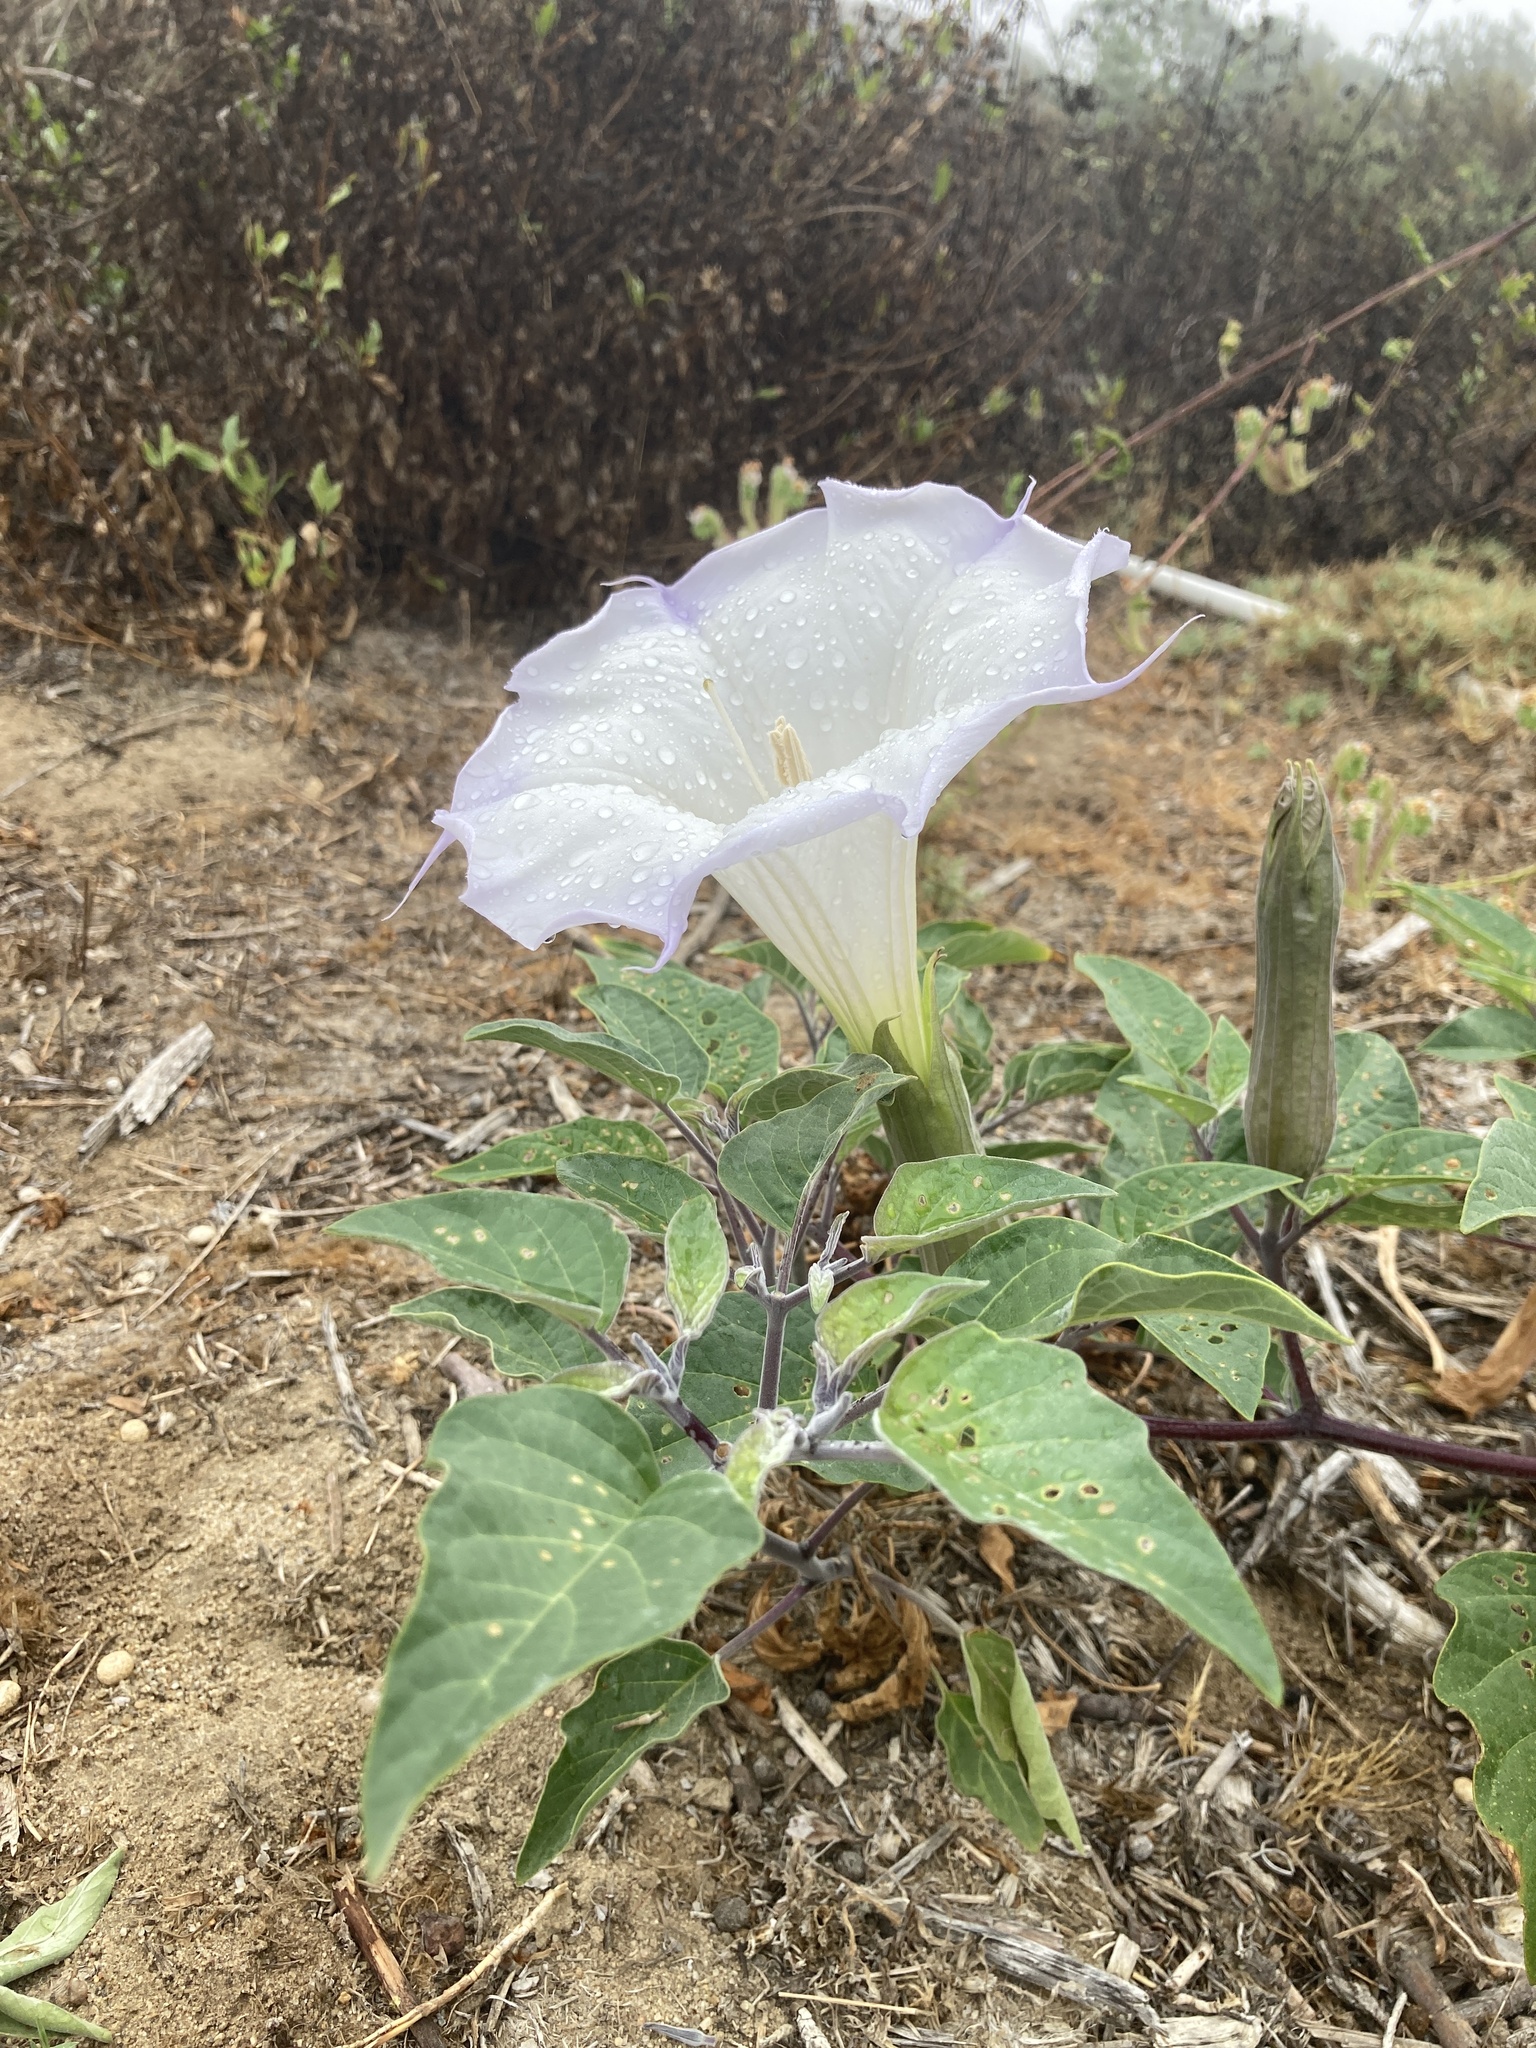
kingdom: Plantae
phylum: Tracheophyta
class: Magnoliopsida
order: Solanales
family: Solanaceae
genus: Datura
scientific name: Datura wrightii
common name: Sacred thorn-apple
